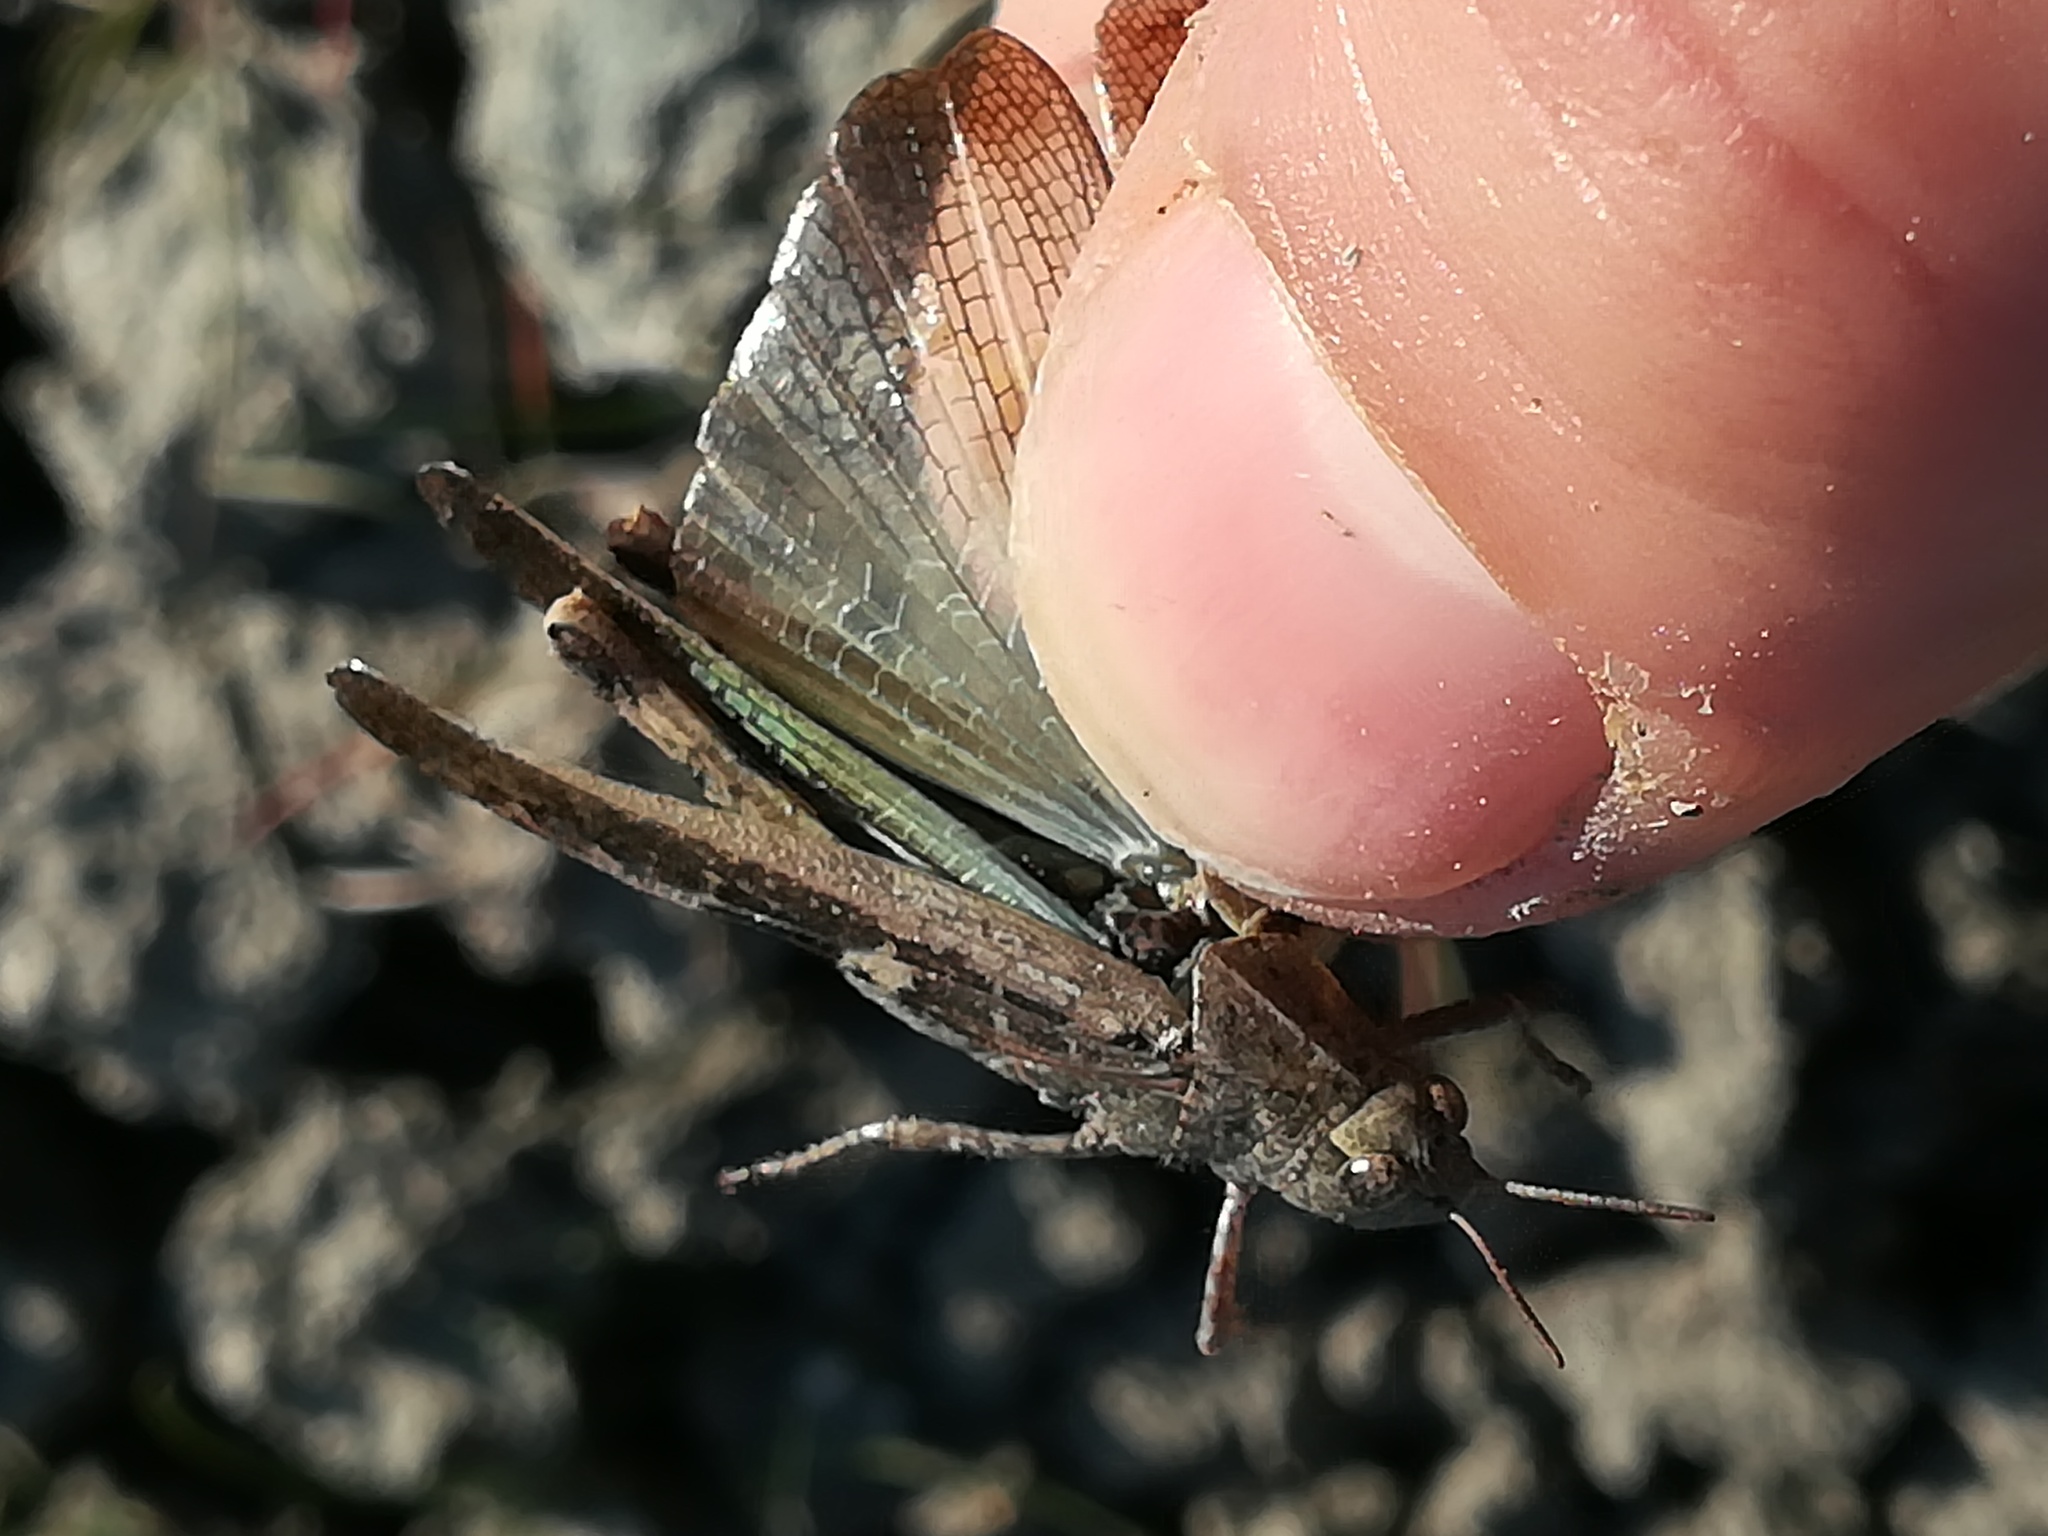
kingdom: Animalia
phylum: Arthropoda
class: Insecta
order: Orthoptera
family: Acrididae
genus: Aiolopus
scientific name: Aiolopus strepens
